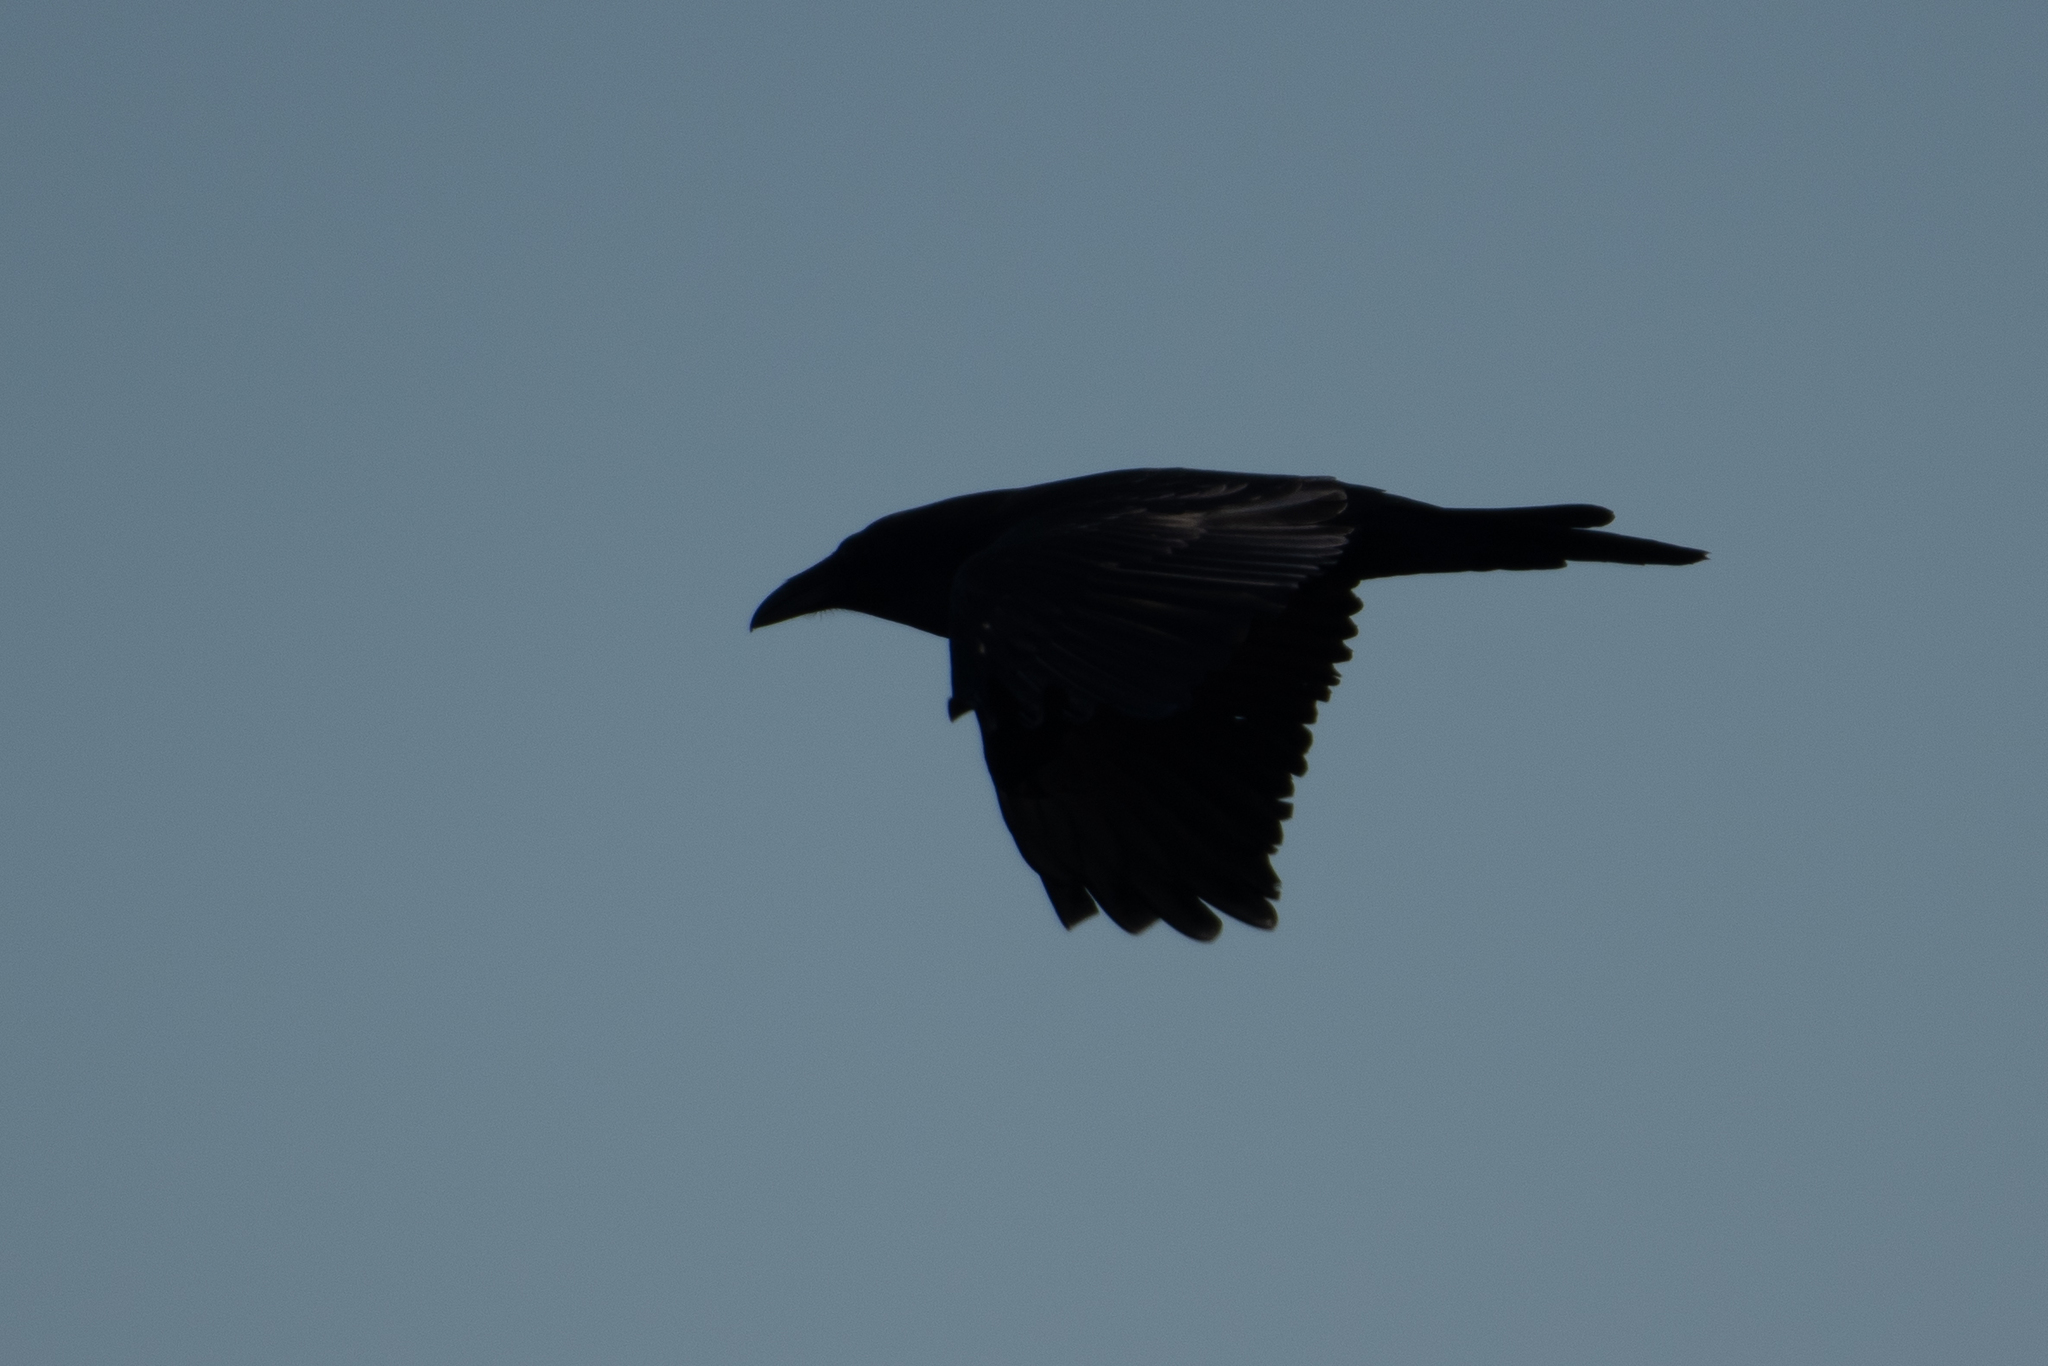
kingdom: Animalia
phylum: Chordata
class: Aves
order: Passeriformes
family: Corvidae
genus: Corvus
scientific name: Corvus corax
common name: Common raven
